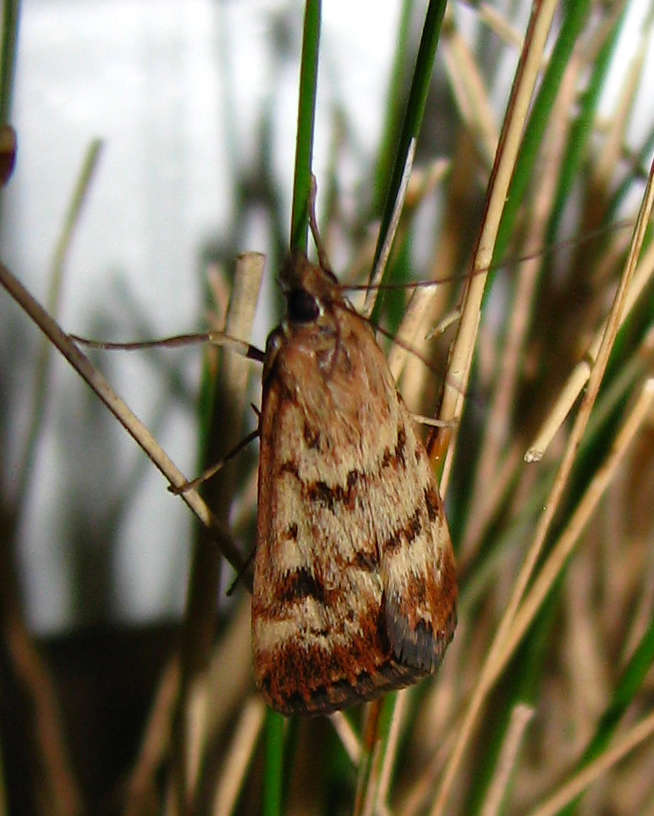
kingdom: Animalia
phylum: Arthropoda
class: Insecta
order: Lepidoptera
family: Crambidae
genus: Achyra
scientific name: Achyra affinitalis
